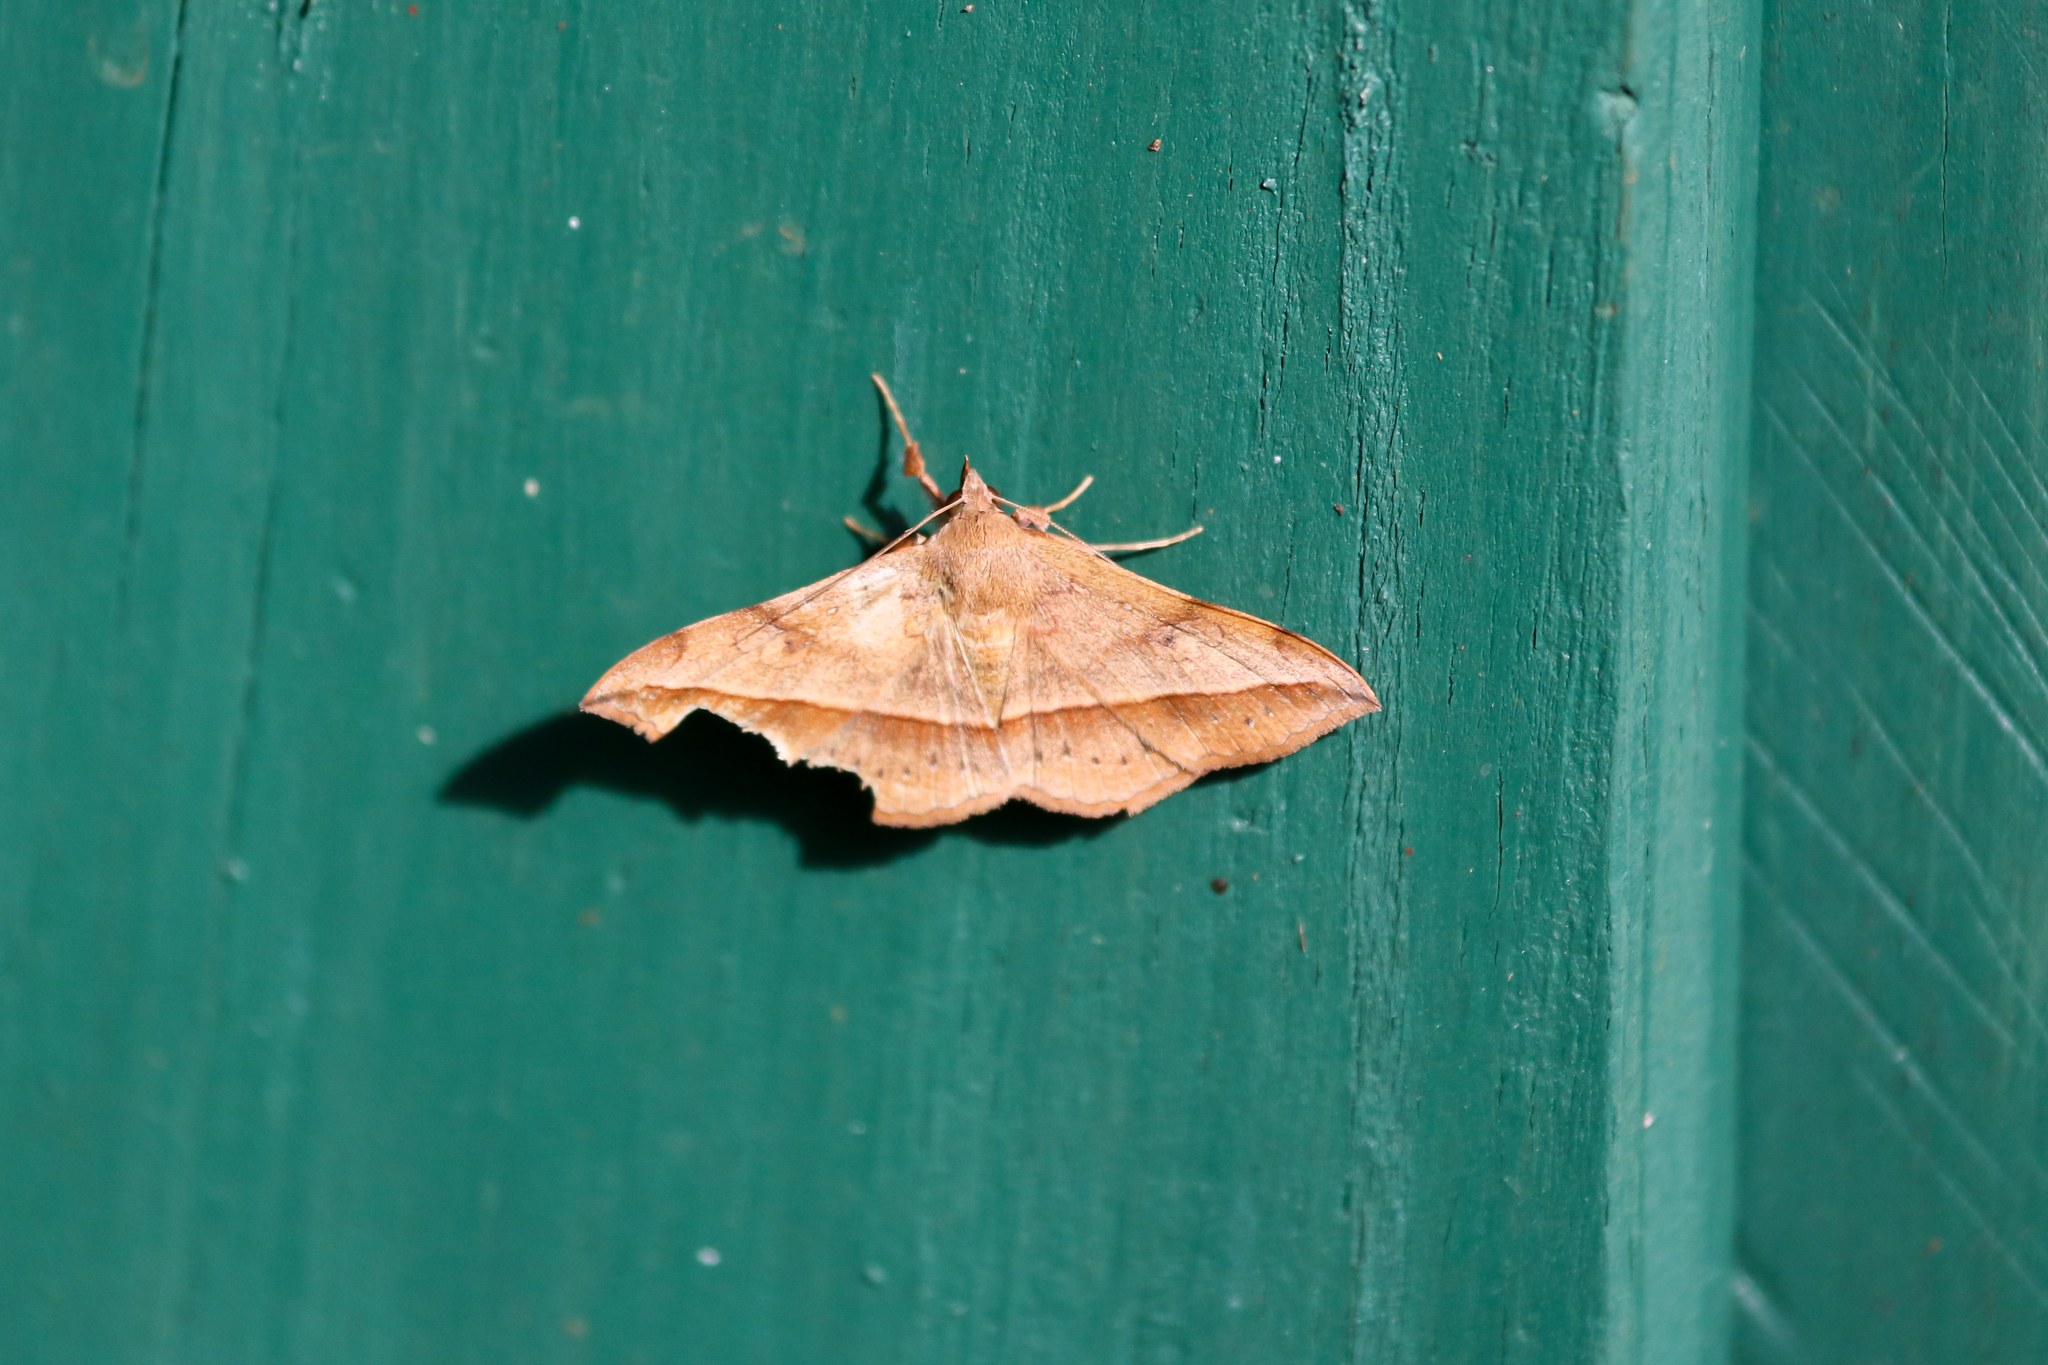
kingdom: Animalia
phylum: Arthropoda
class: Insecta
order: Lepidoptera
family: Erebidae
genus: Anticarsia
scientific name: Anticarsia irrorata
